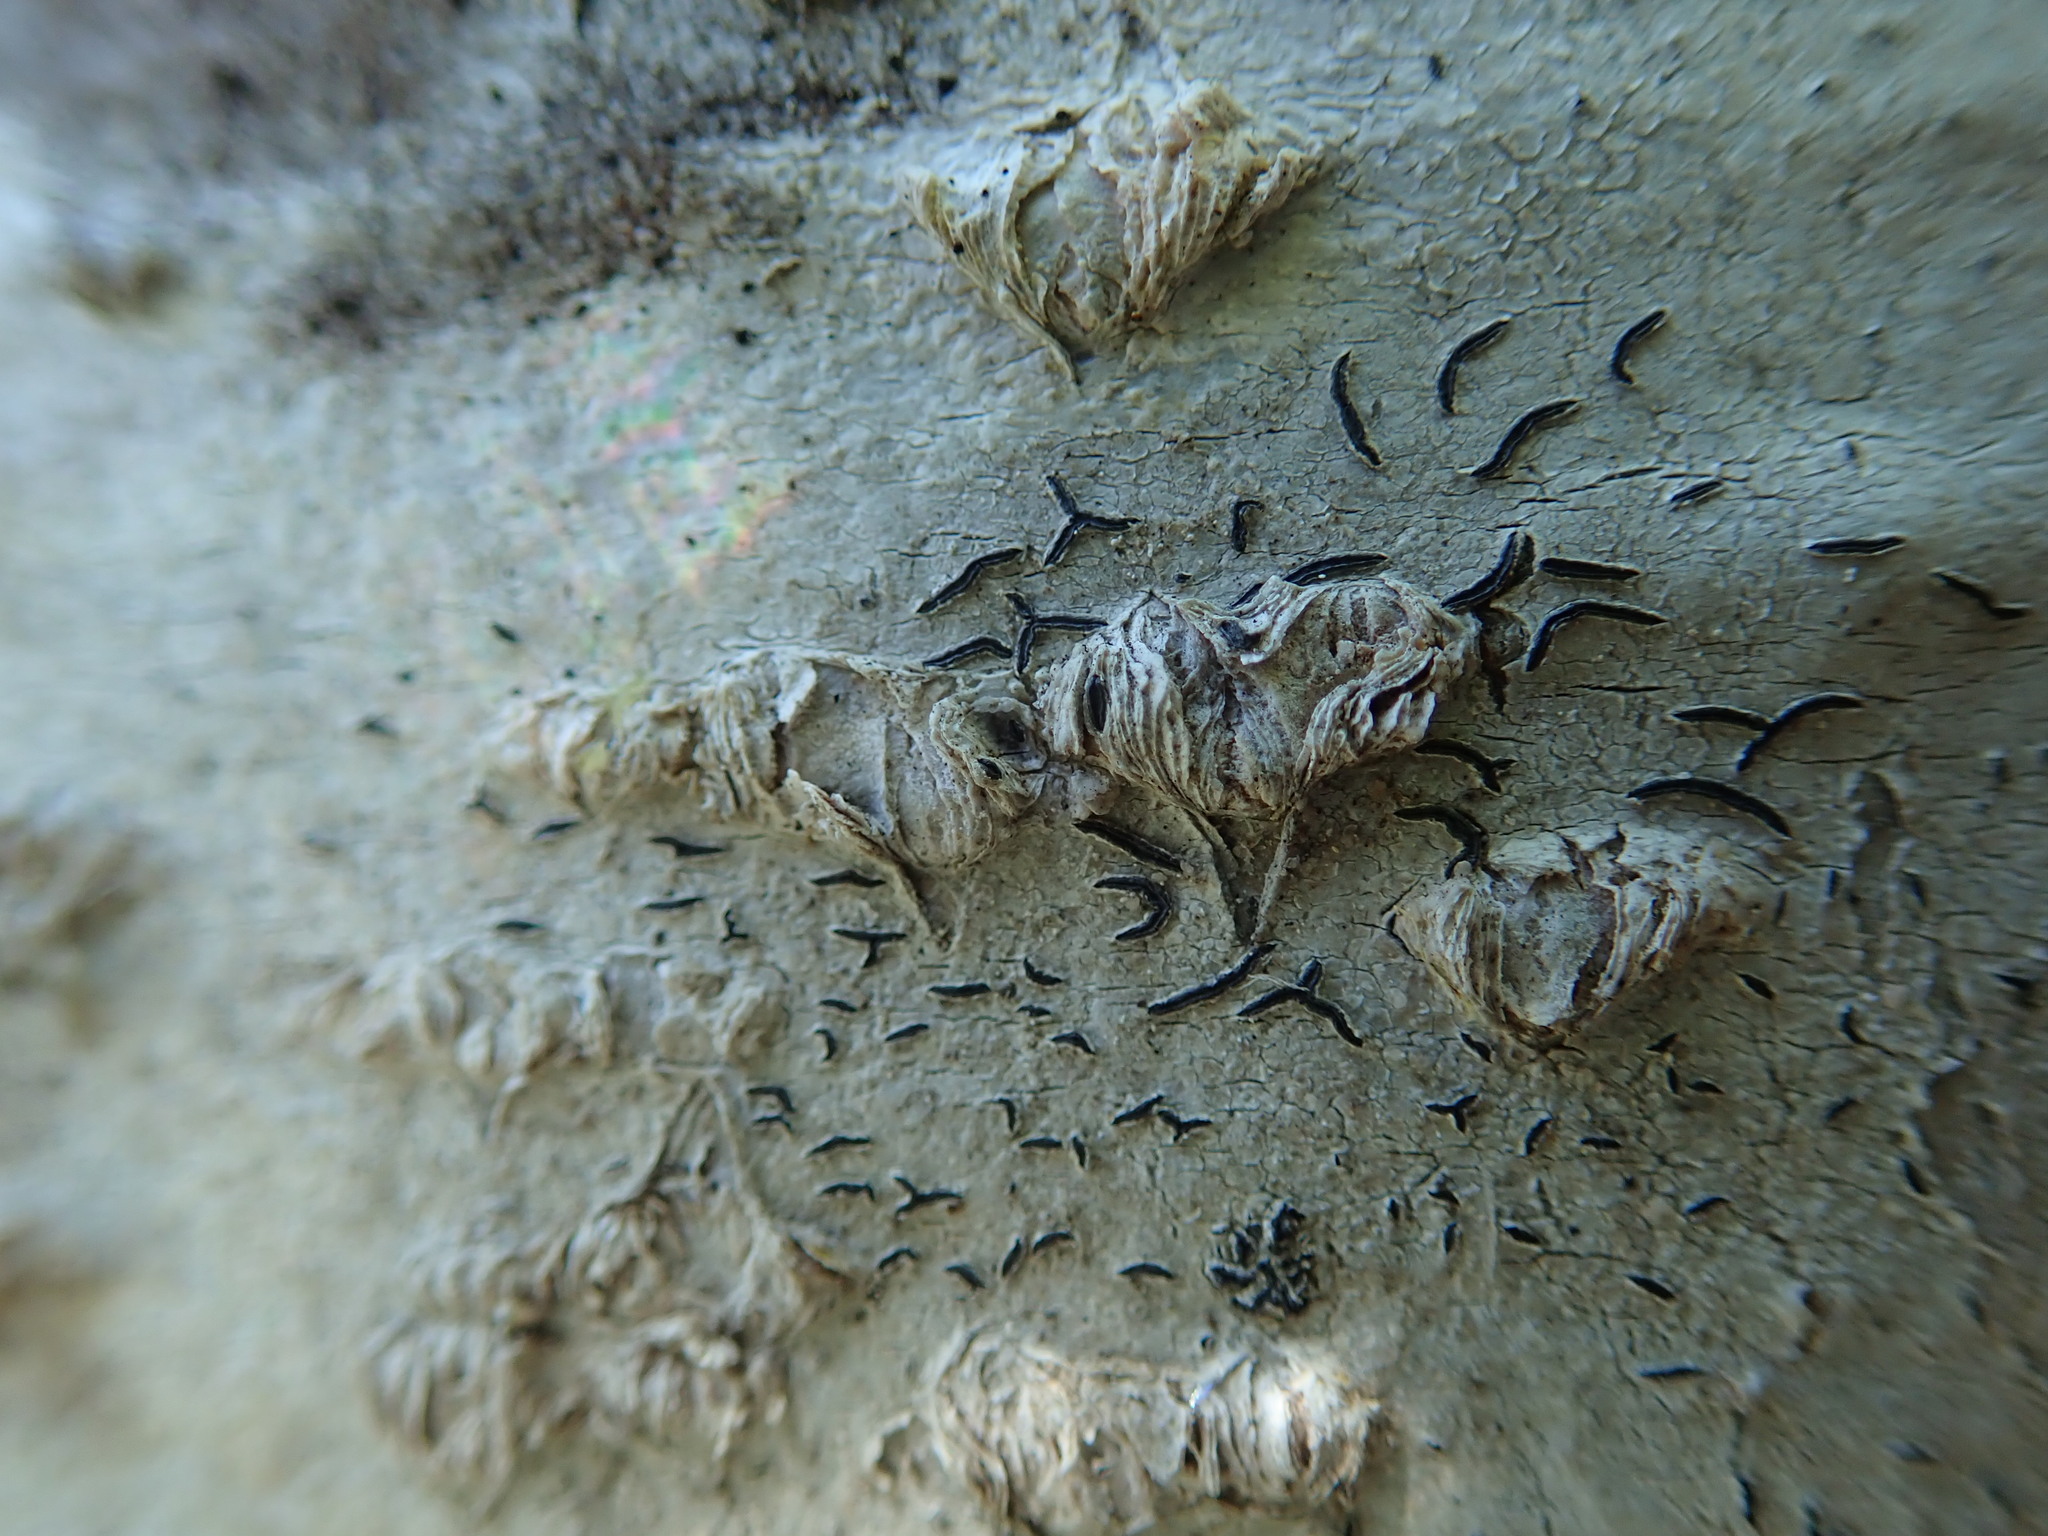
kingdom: Fungi
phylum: Ascomycota
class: Lecanoromycetes
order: Ostropales
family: Graphidaceae
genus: Graphis
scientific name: Graphis scripta
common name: Script lichen
